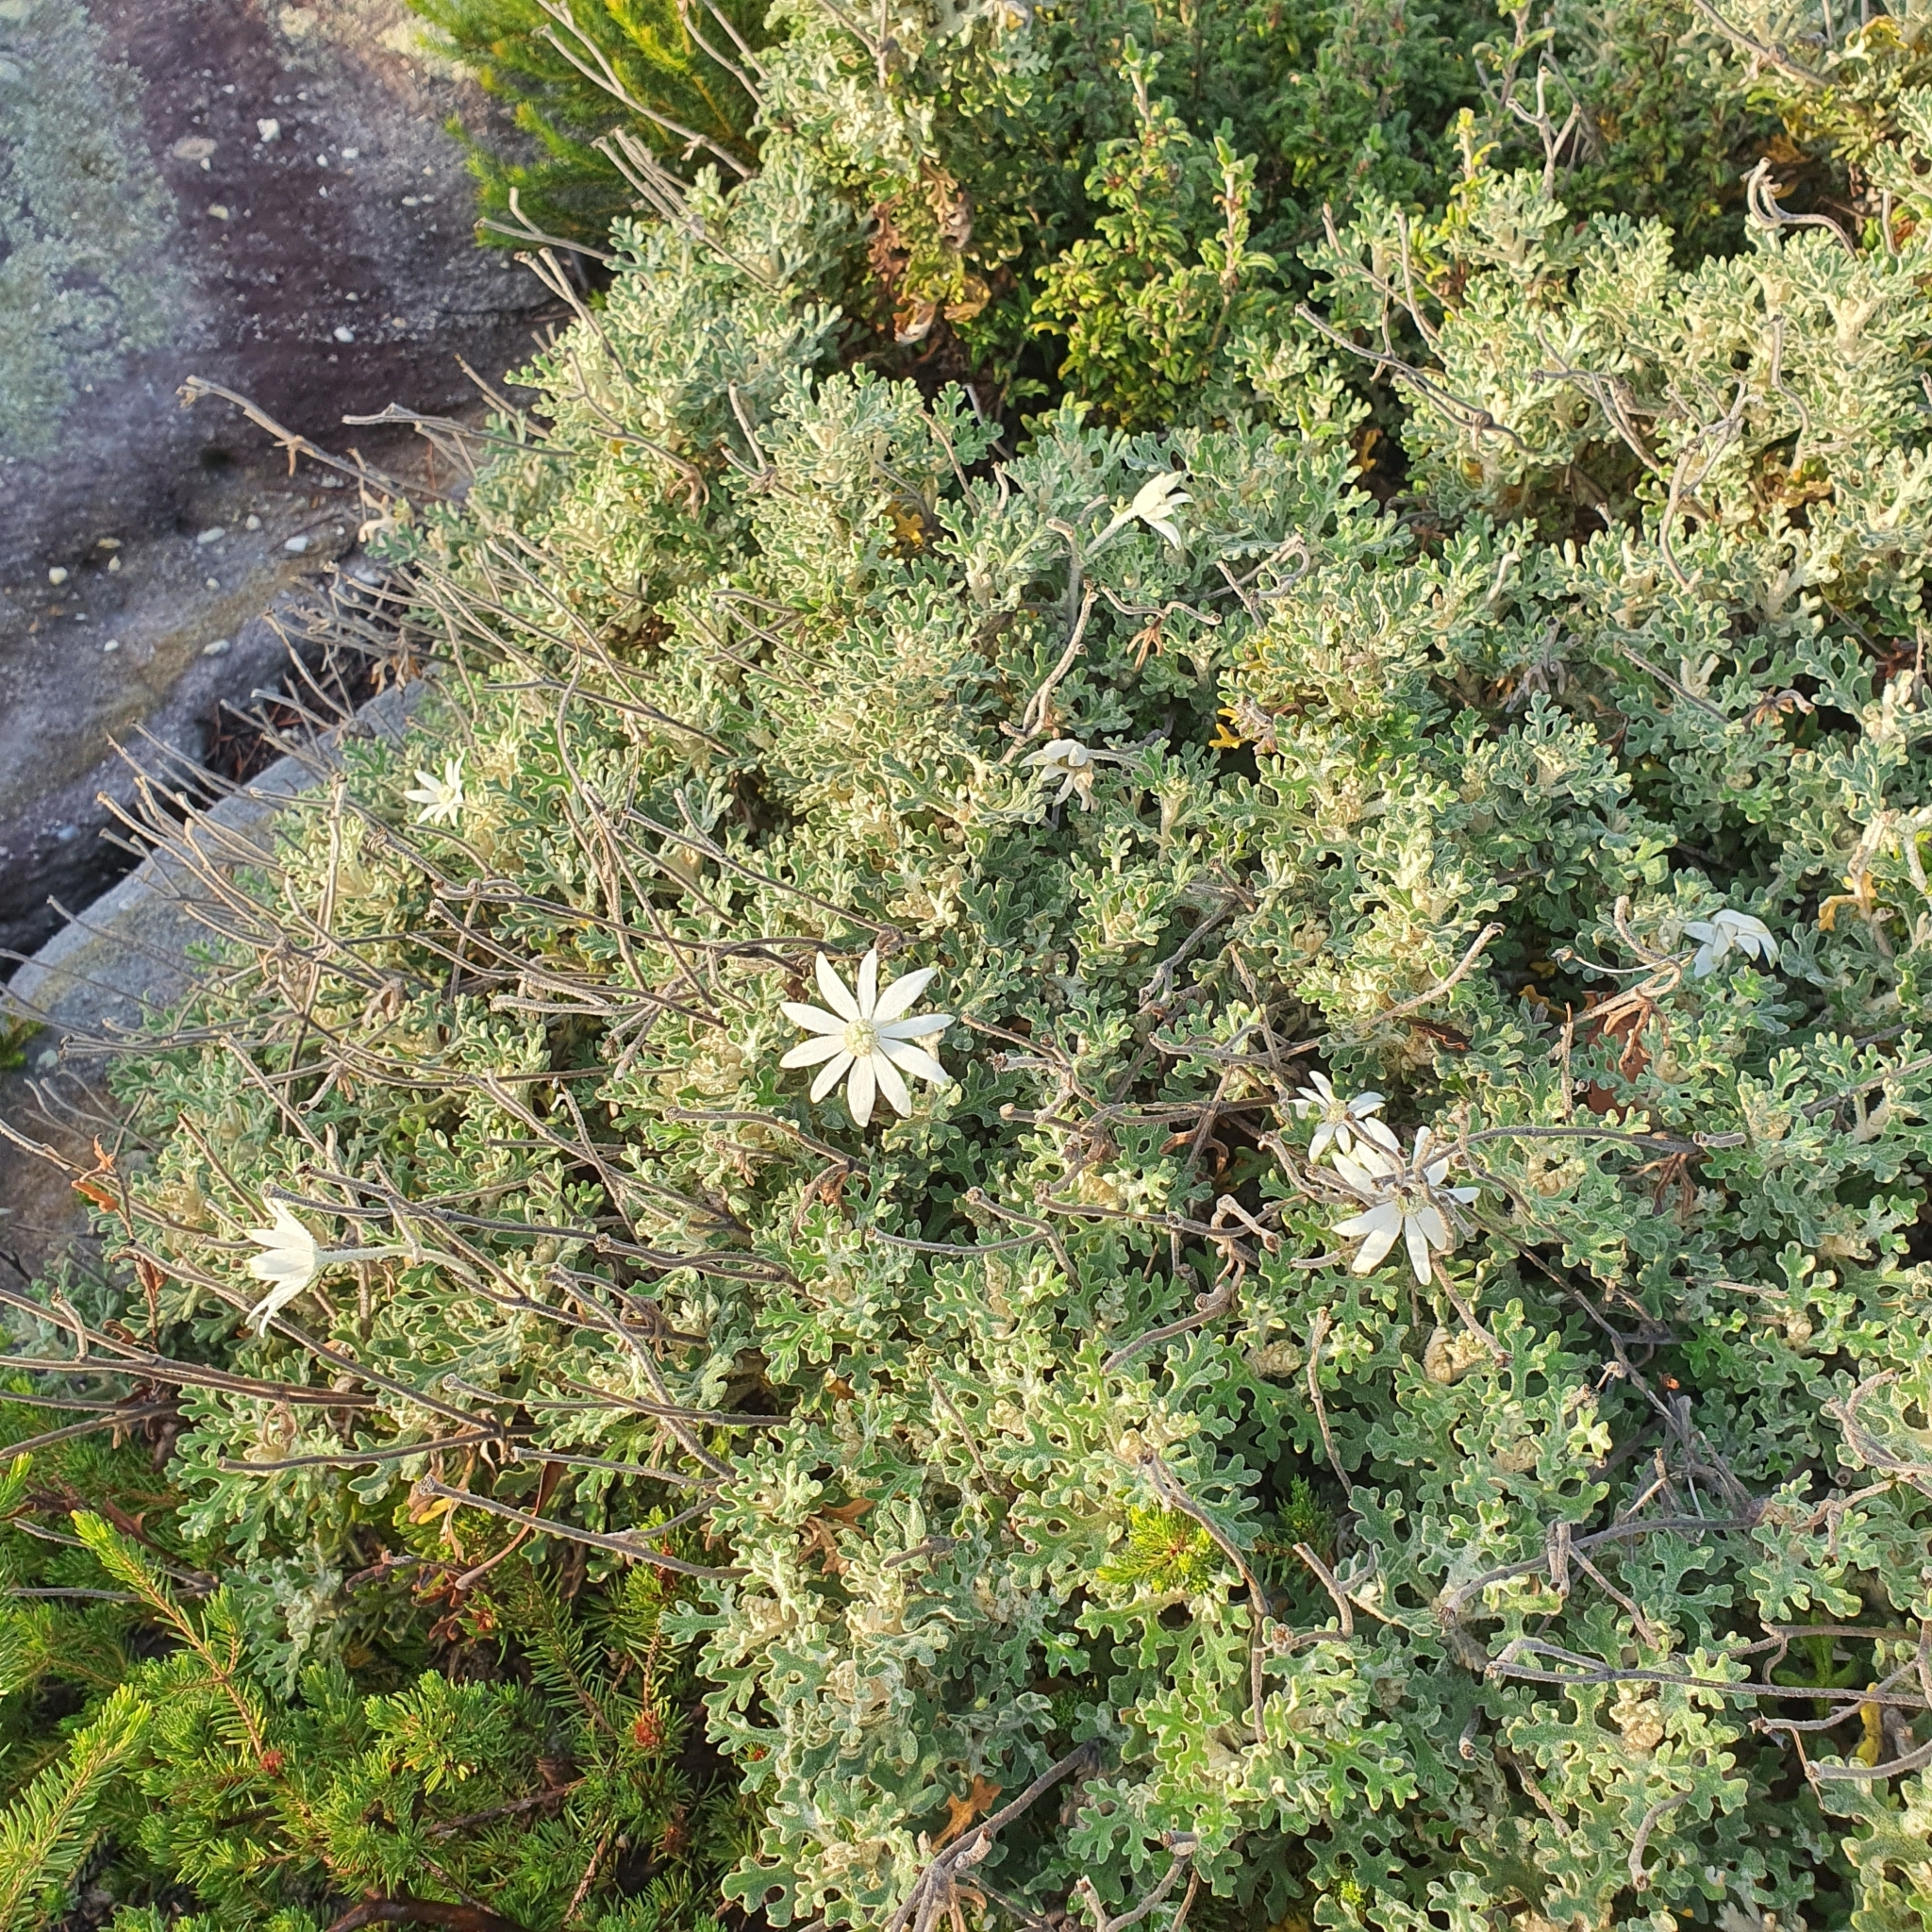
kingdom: Plantae
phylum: Tracheophyta
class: Magnoliopsida
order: Apiales
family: Apiaceae
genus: Actinotus
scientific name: Actinotus helianthi
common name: Flannel-flower
